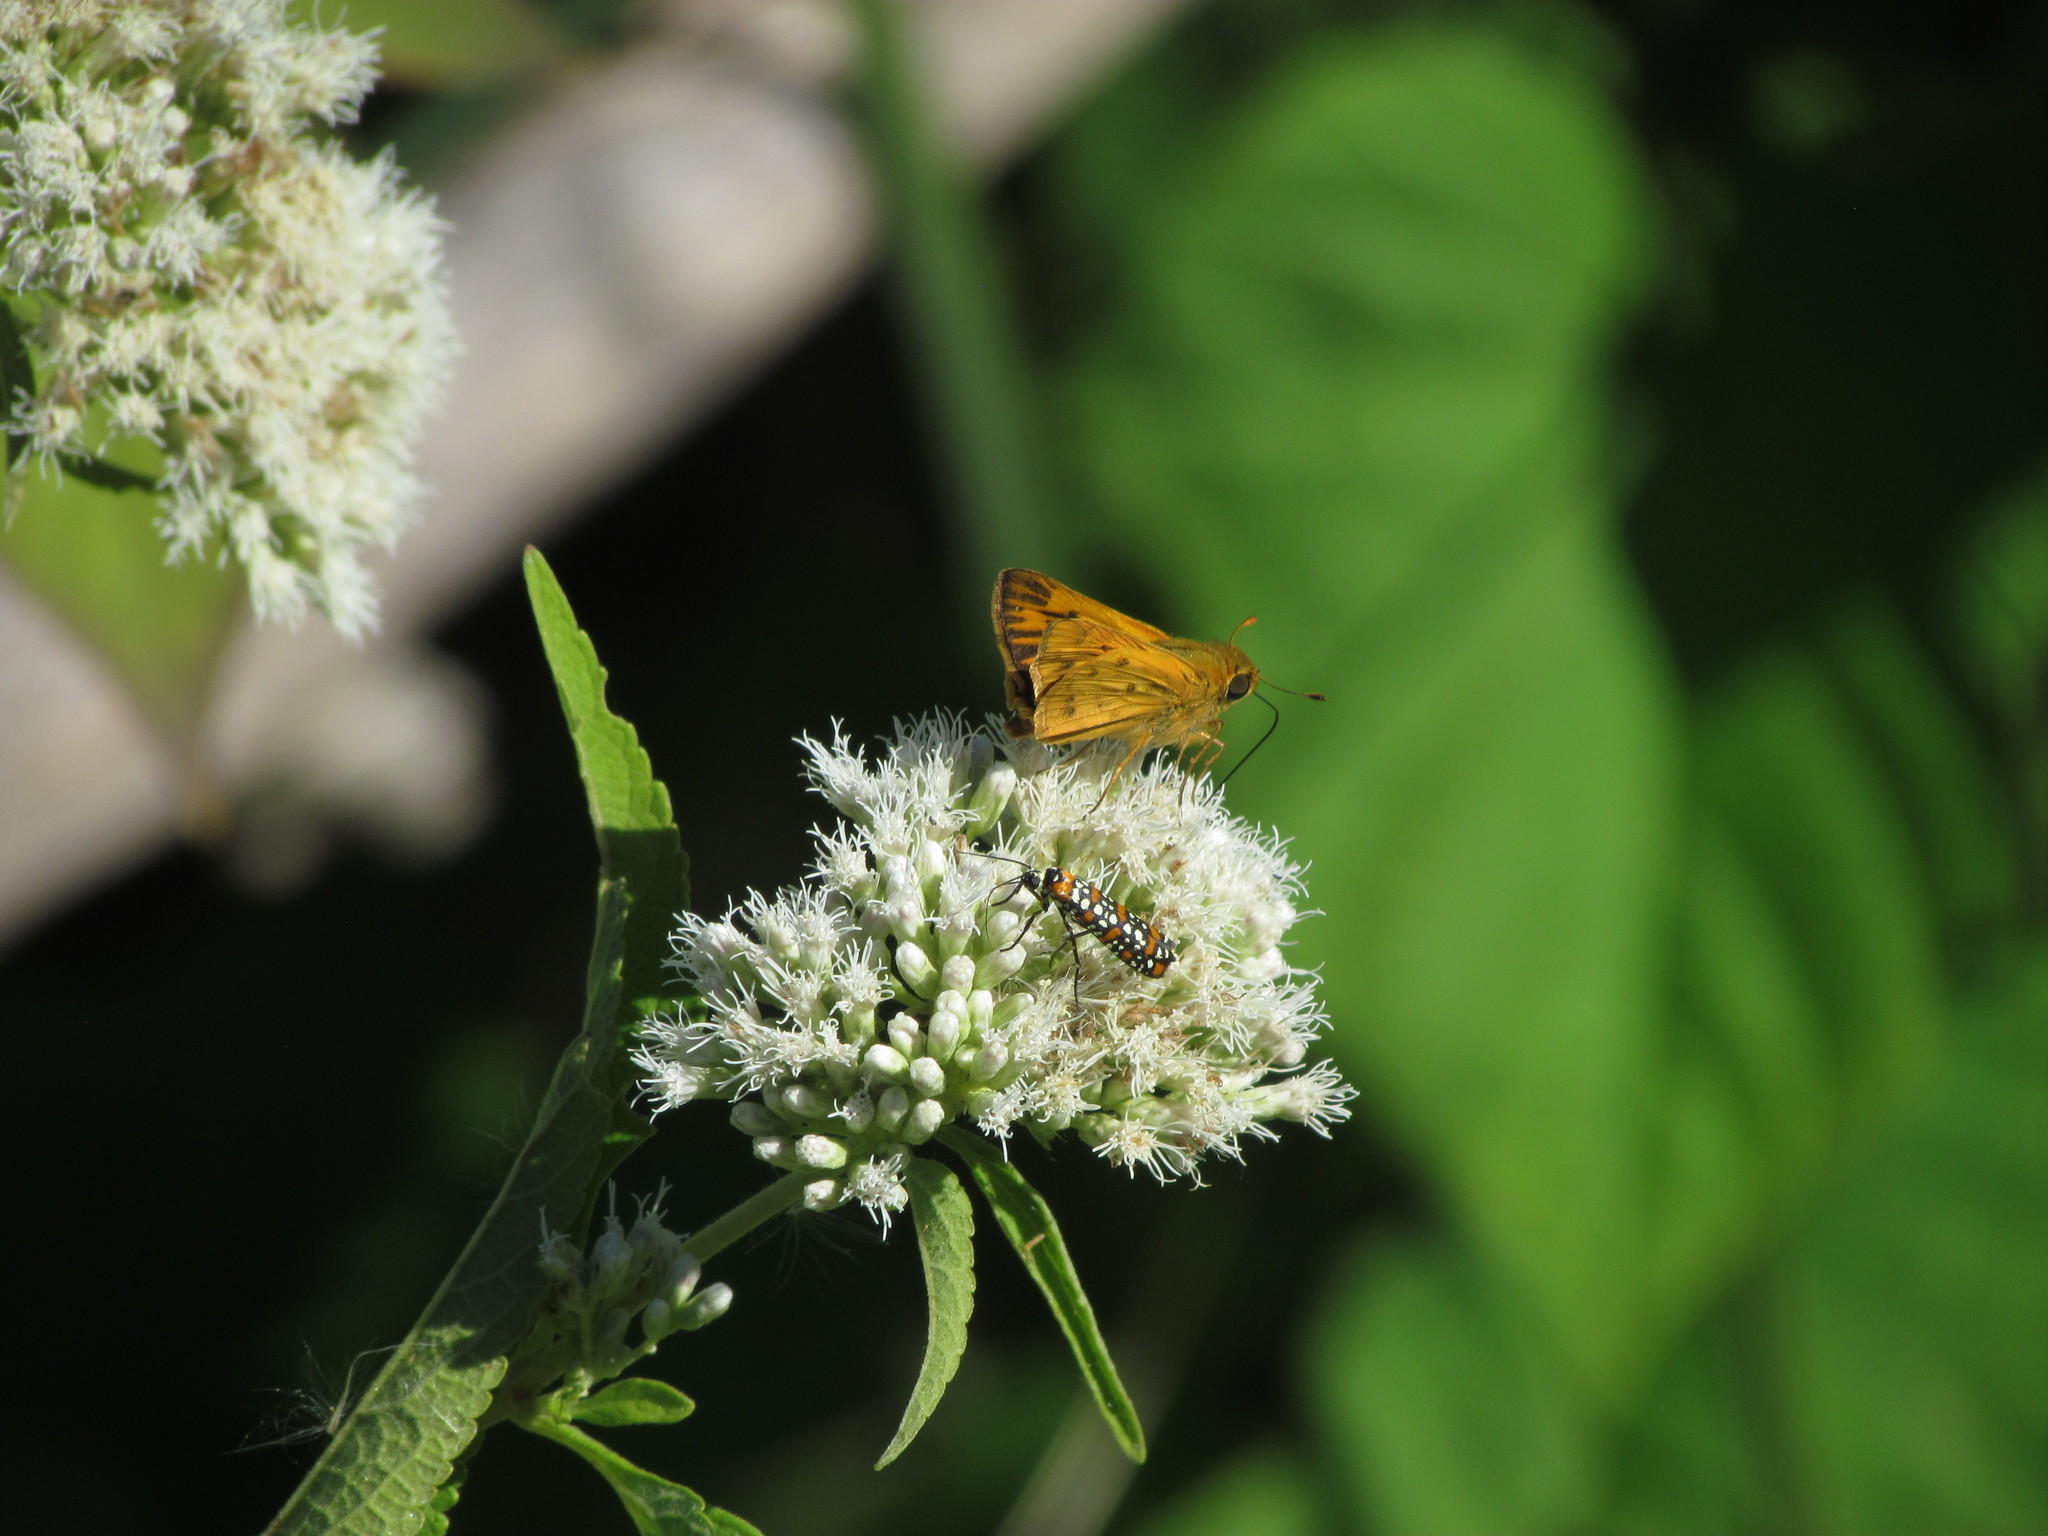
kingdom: Animalia
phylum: Arthropoda
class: Insecta
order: Lepidoptera
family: Hesperiidae
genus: Hylephila
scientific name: Hylephila phyleus
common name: Fiery skipper
